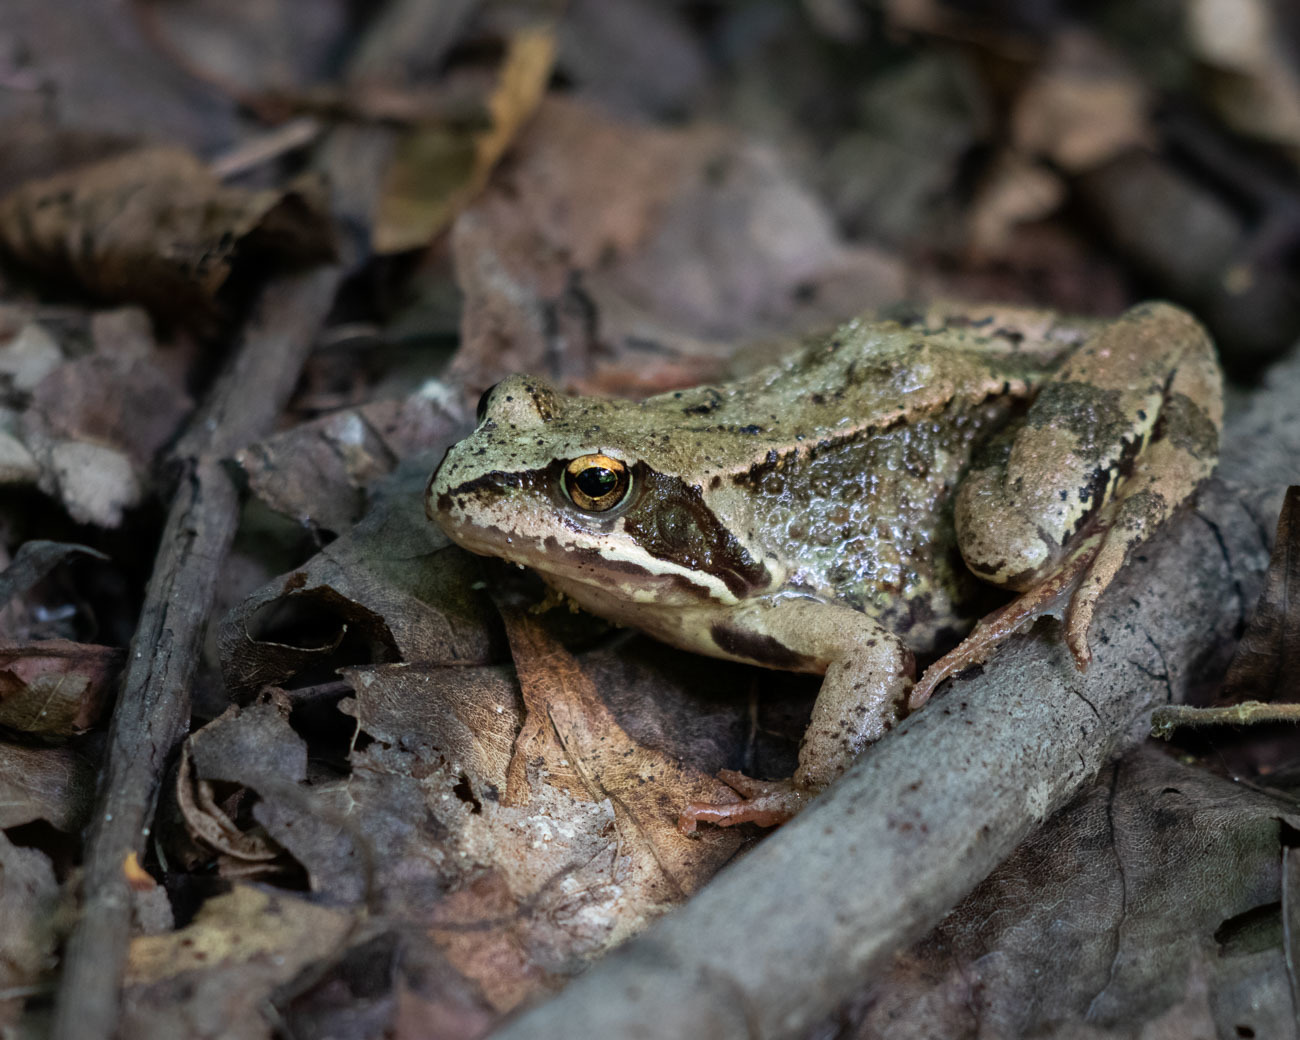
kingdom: Animalia
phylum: Chordata
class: Amphibia
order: Anura
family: Ranidae
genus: Rana
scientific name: Rana temporaria
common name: Common frog
